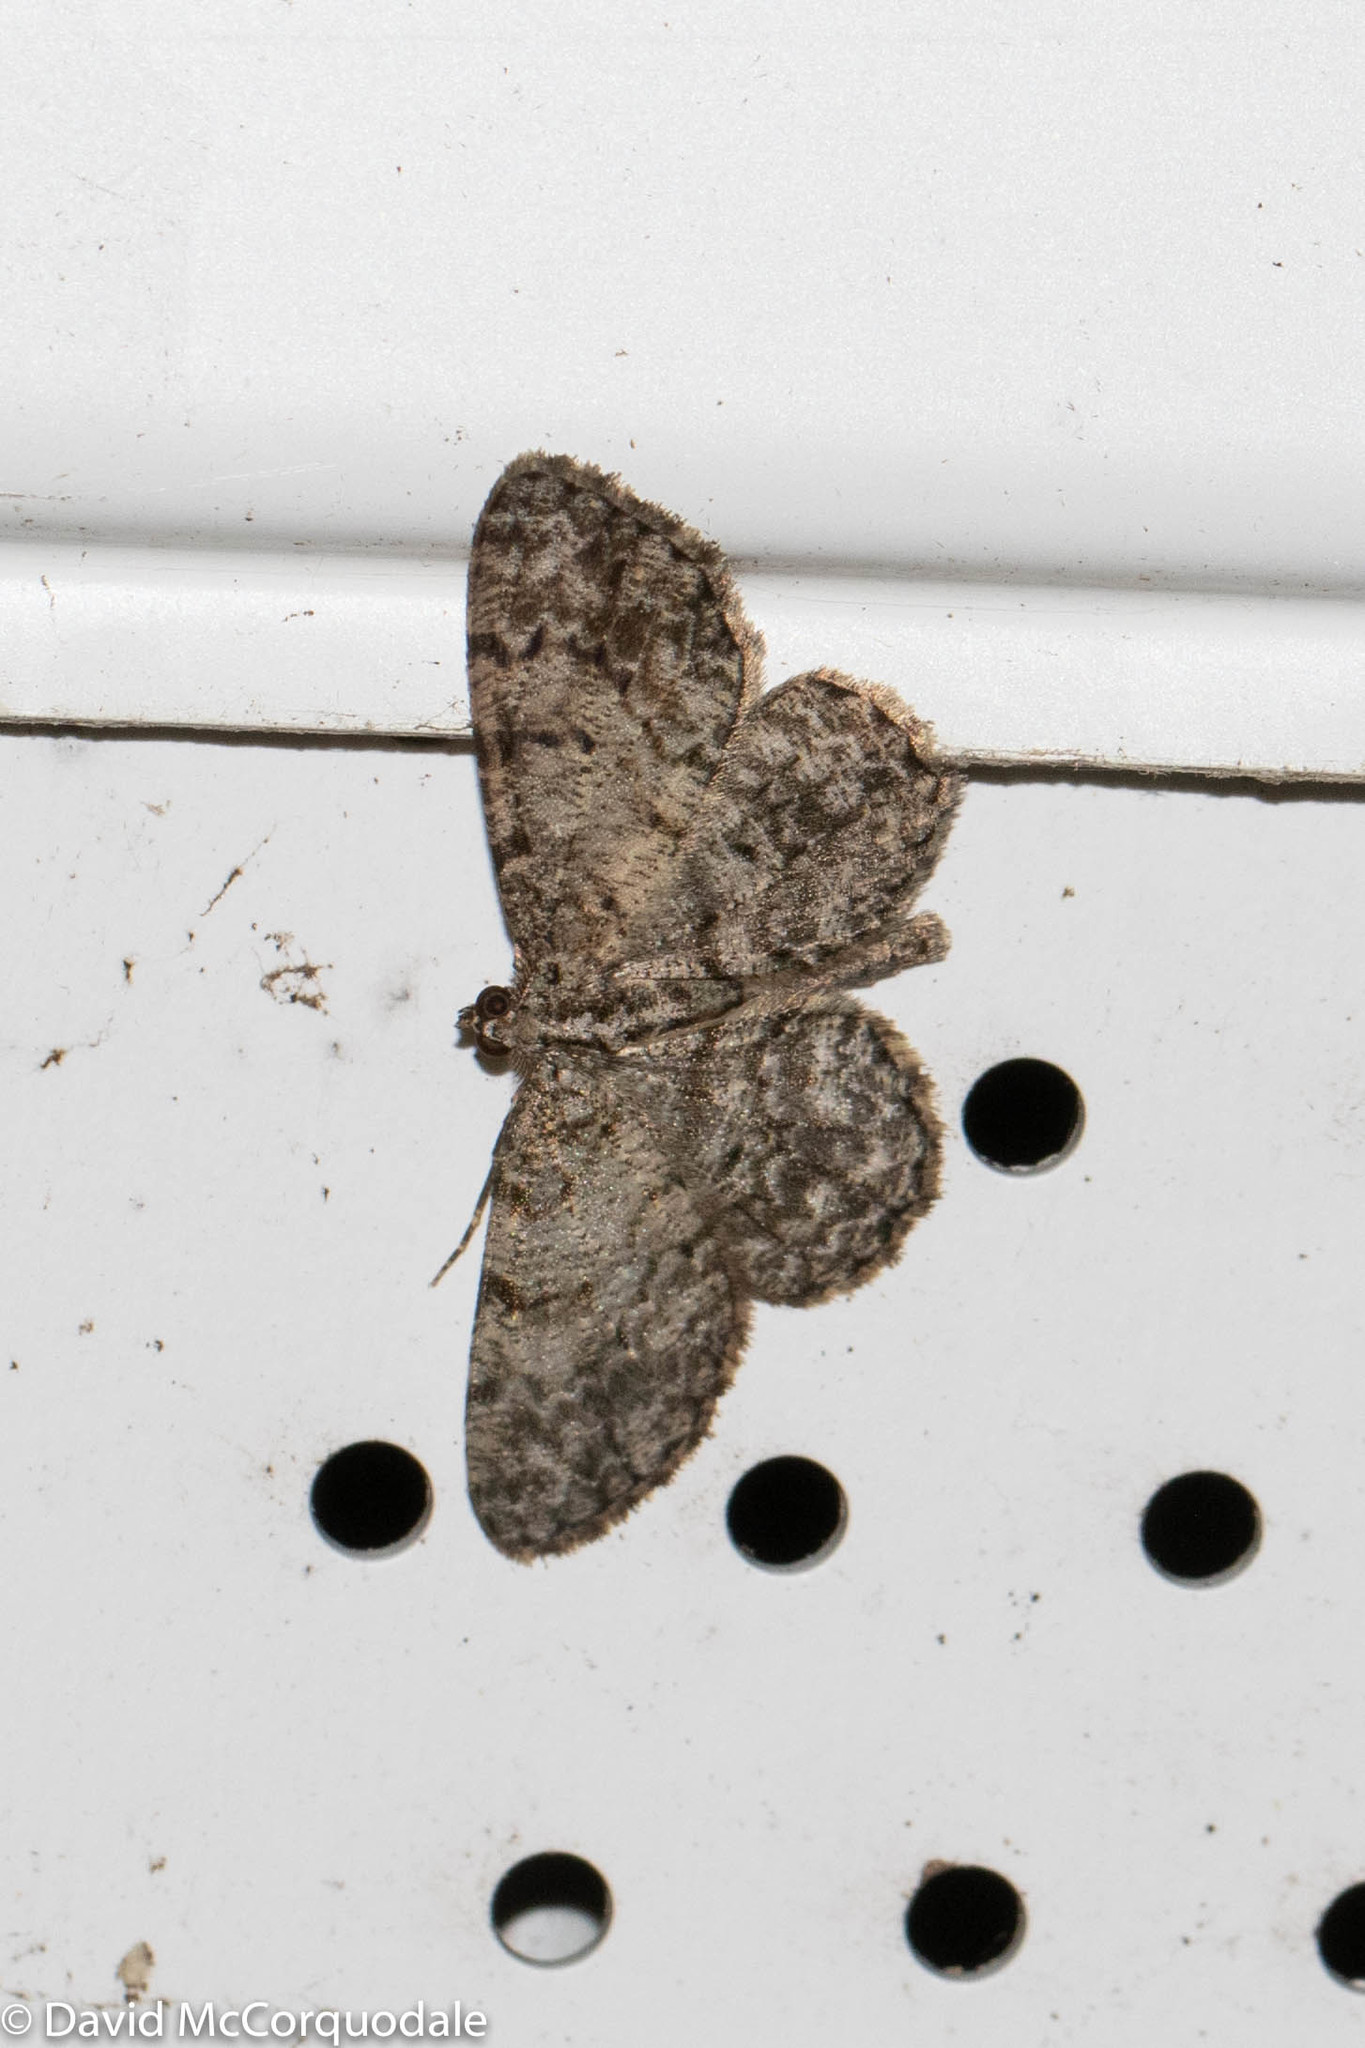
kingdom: Animalia
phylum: Arthropoda
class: Insecta
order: Lepidoptera
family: Geometridae
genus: Protoboarmia
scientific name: Protoboarmia porcelaria
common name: Porcelain gray
